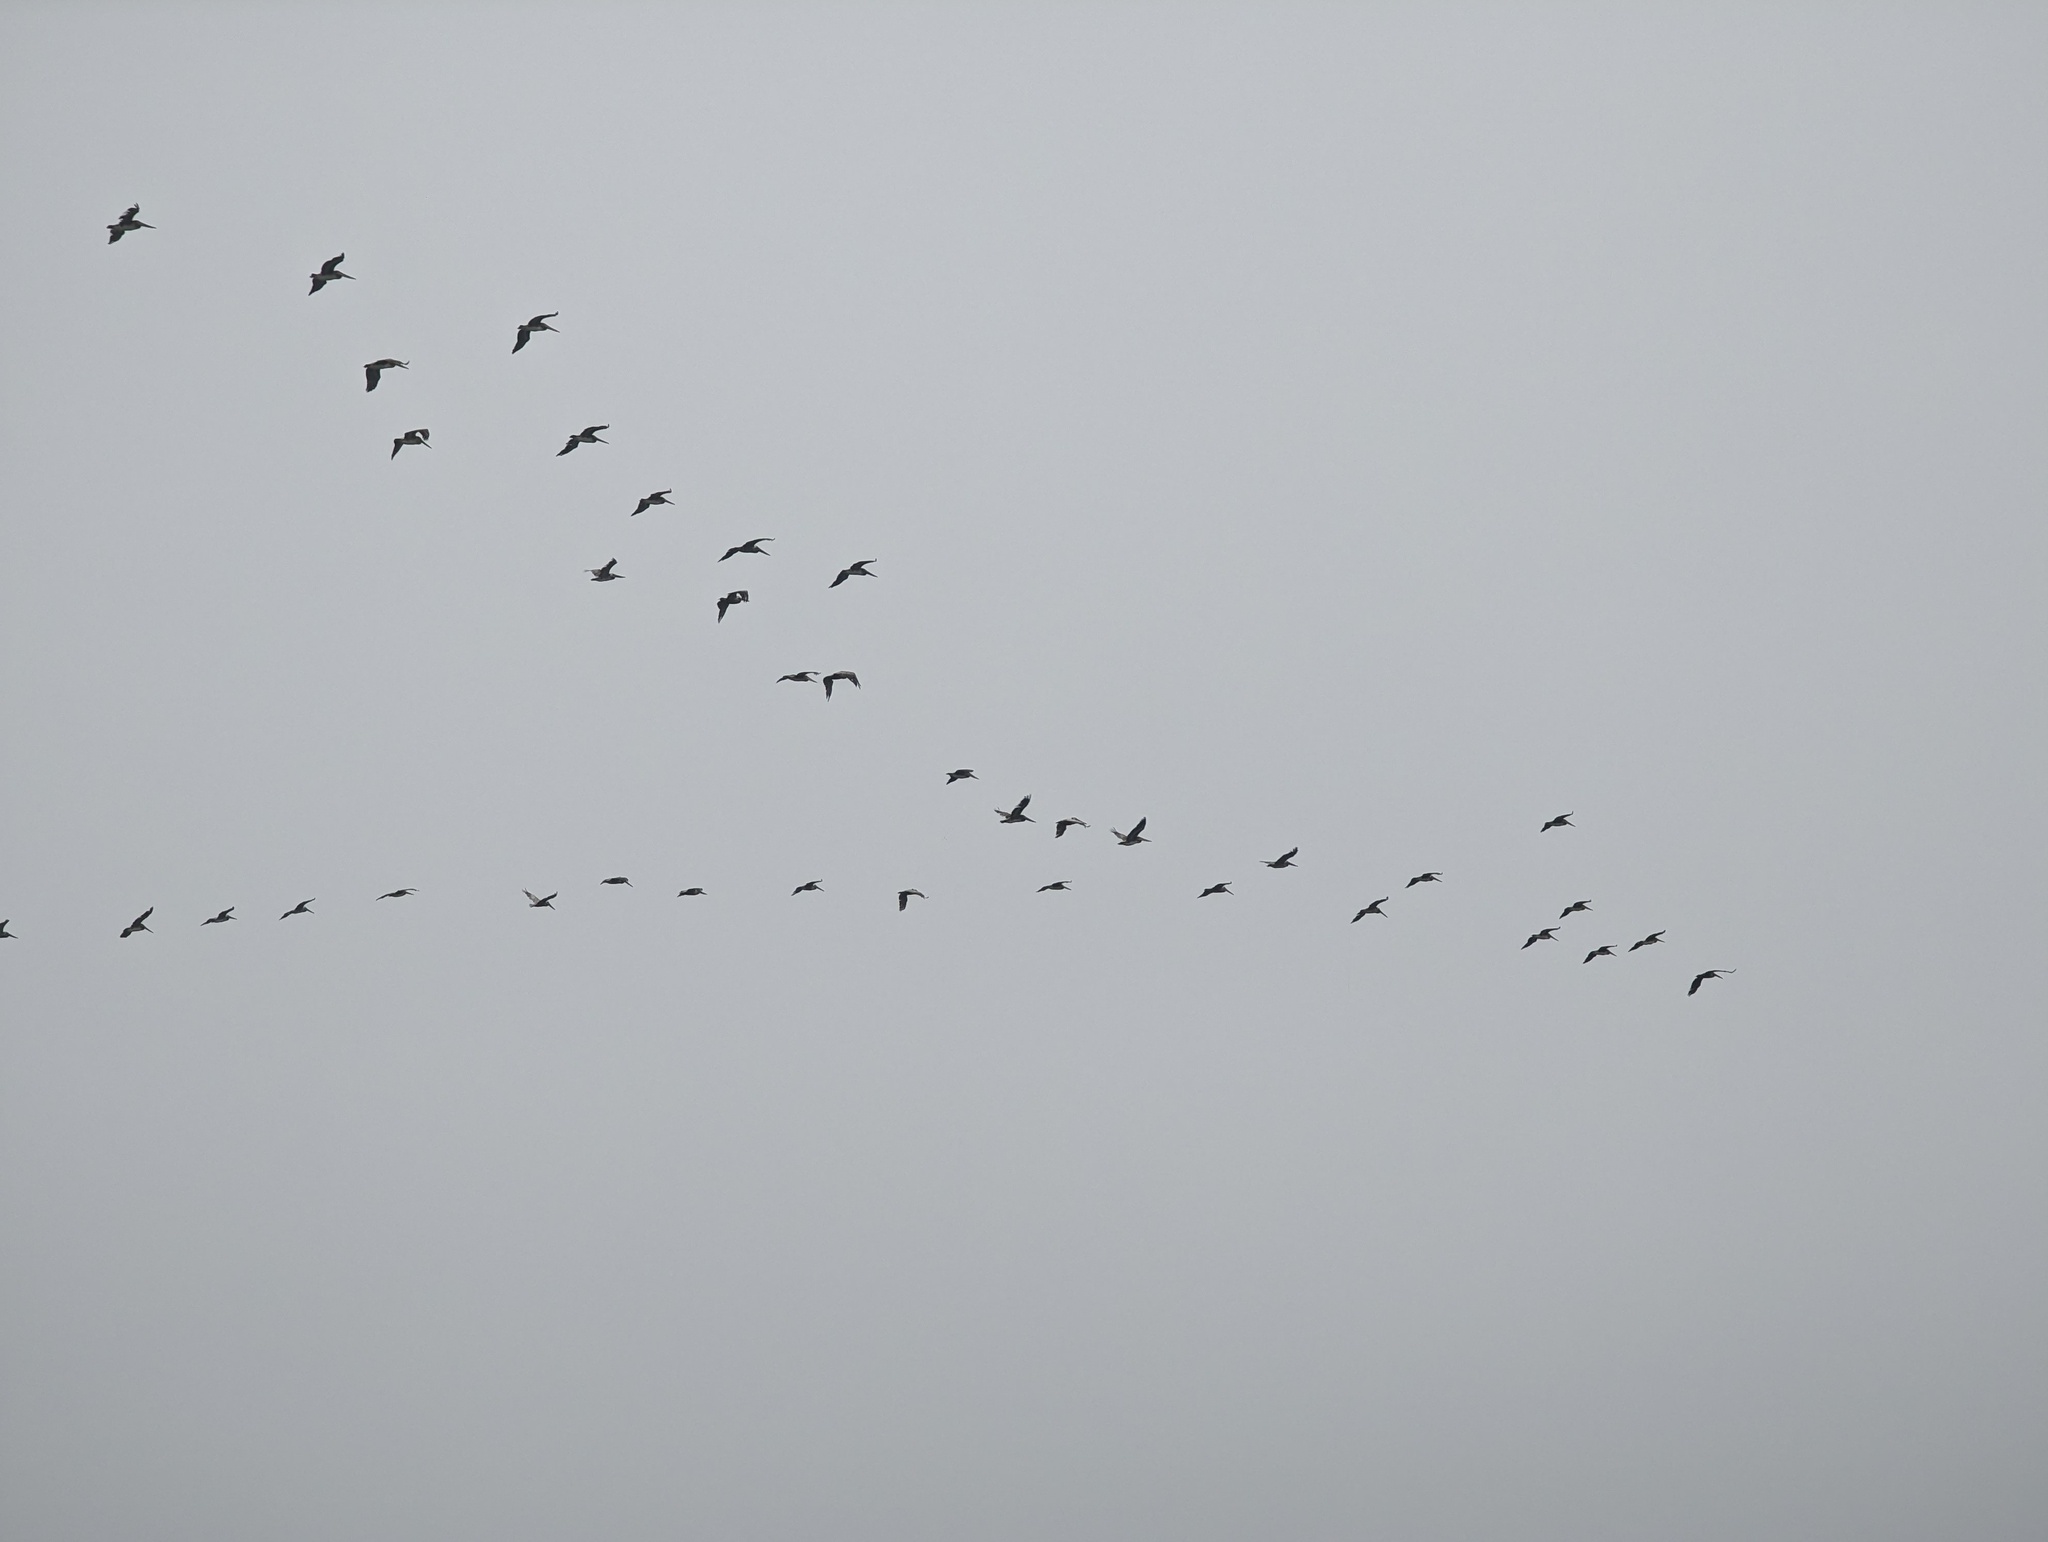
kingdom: Animalia
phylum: Chordata
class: Aves
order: Pelecaniformes
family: Pelecanidae
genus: Pelecanus
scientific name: Pelecanus occidentalis
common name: Brown pelican
